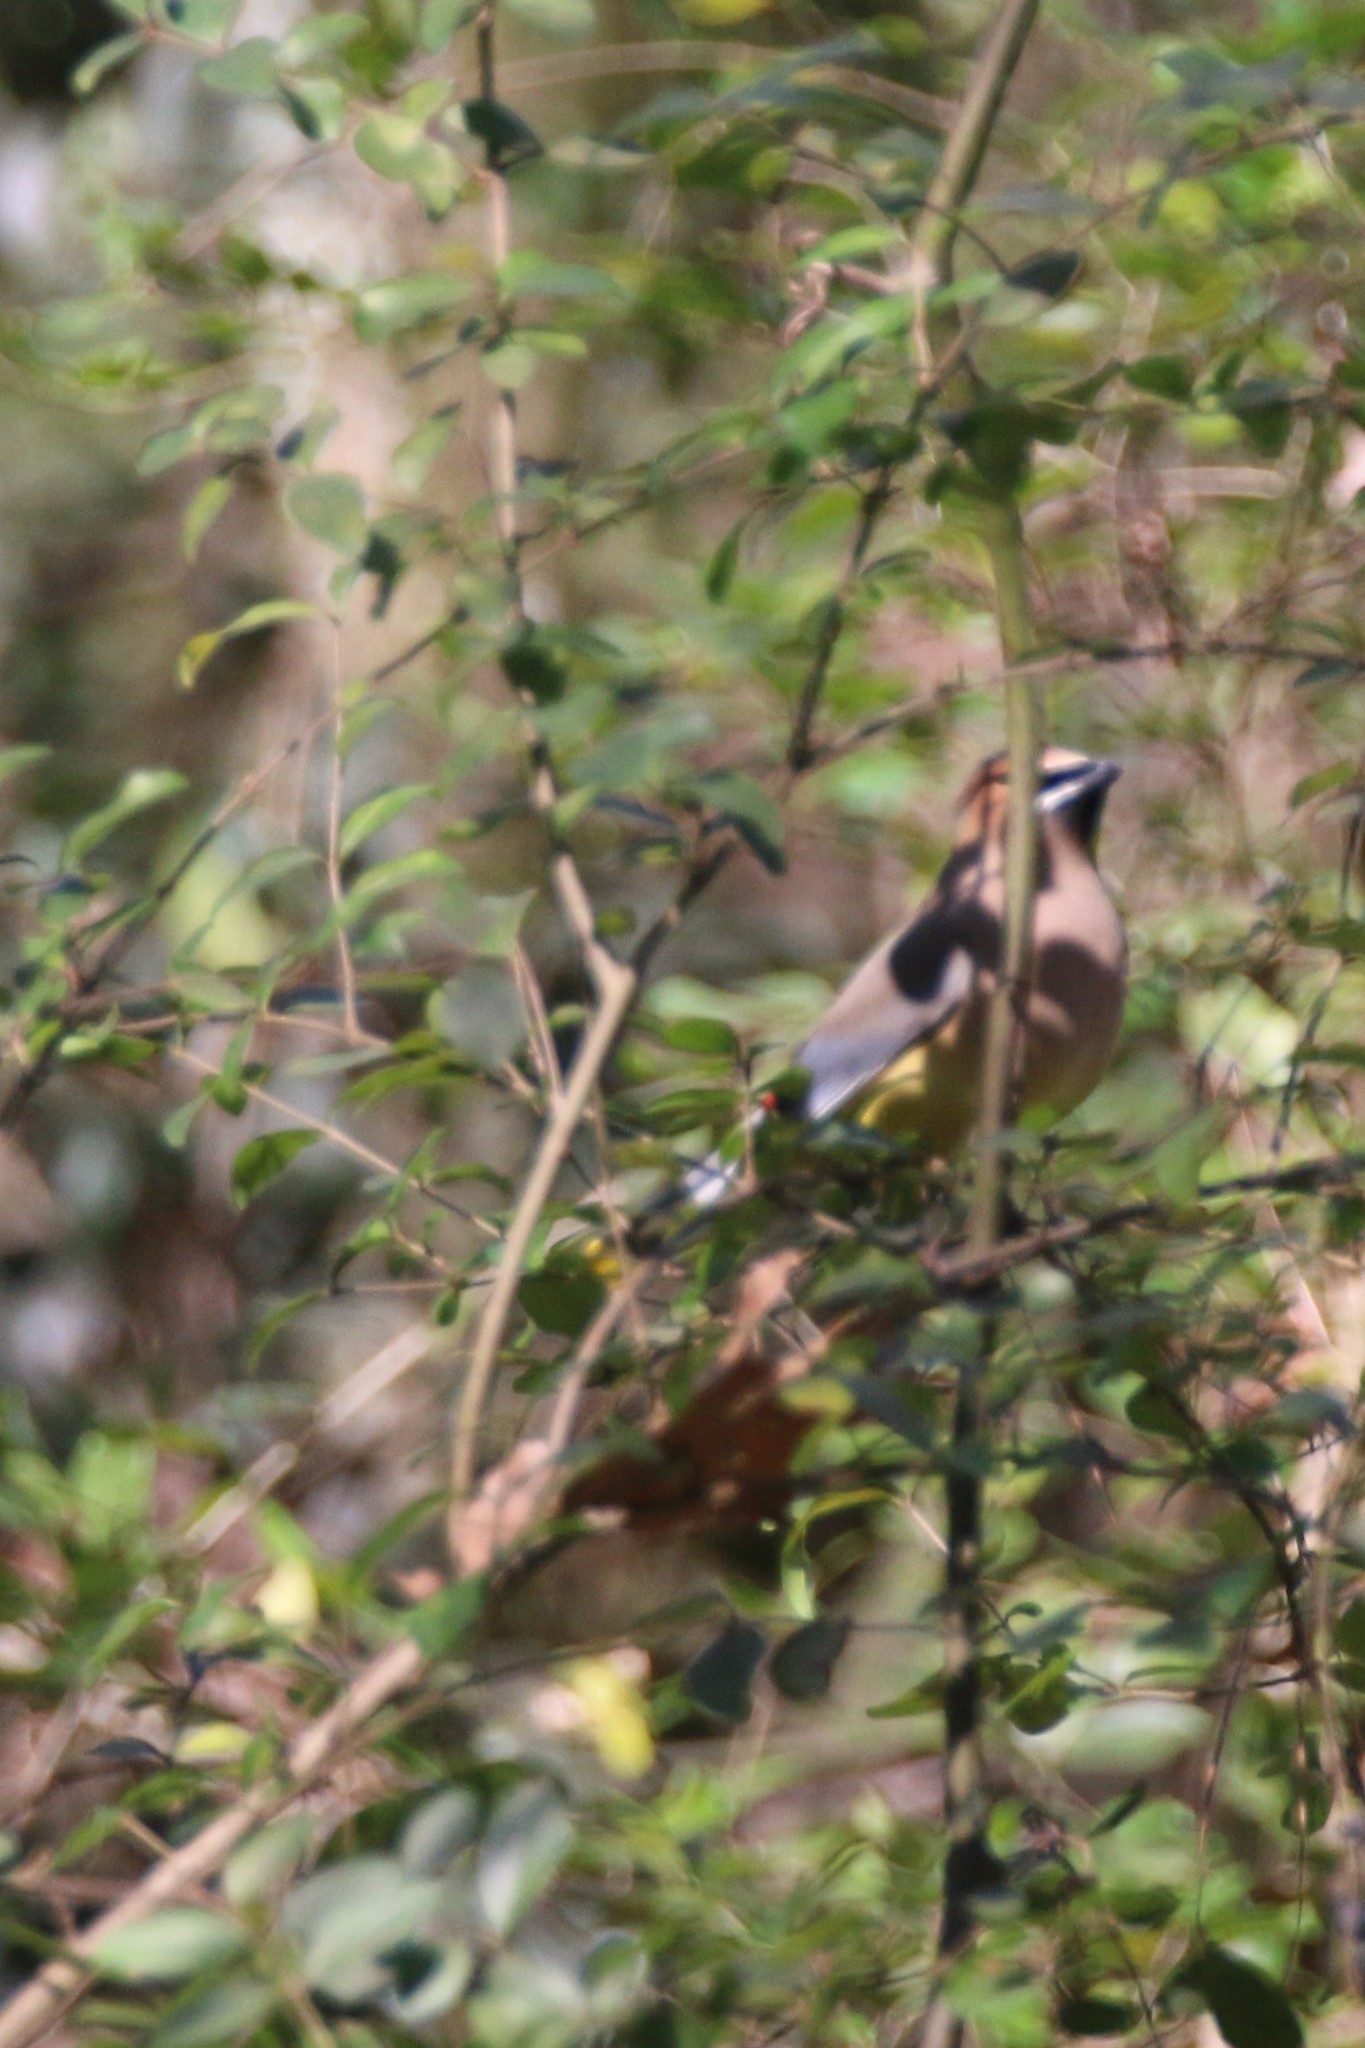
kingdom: Animalia
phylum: Chordata
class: Aves
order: Passeriformes
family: Bombycillidae
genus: Bombycilla
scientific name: Bombycilla cedrorum
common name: Cedar waxwing
